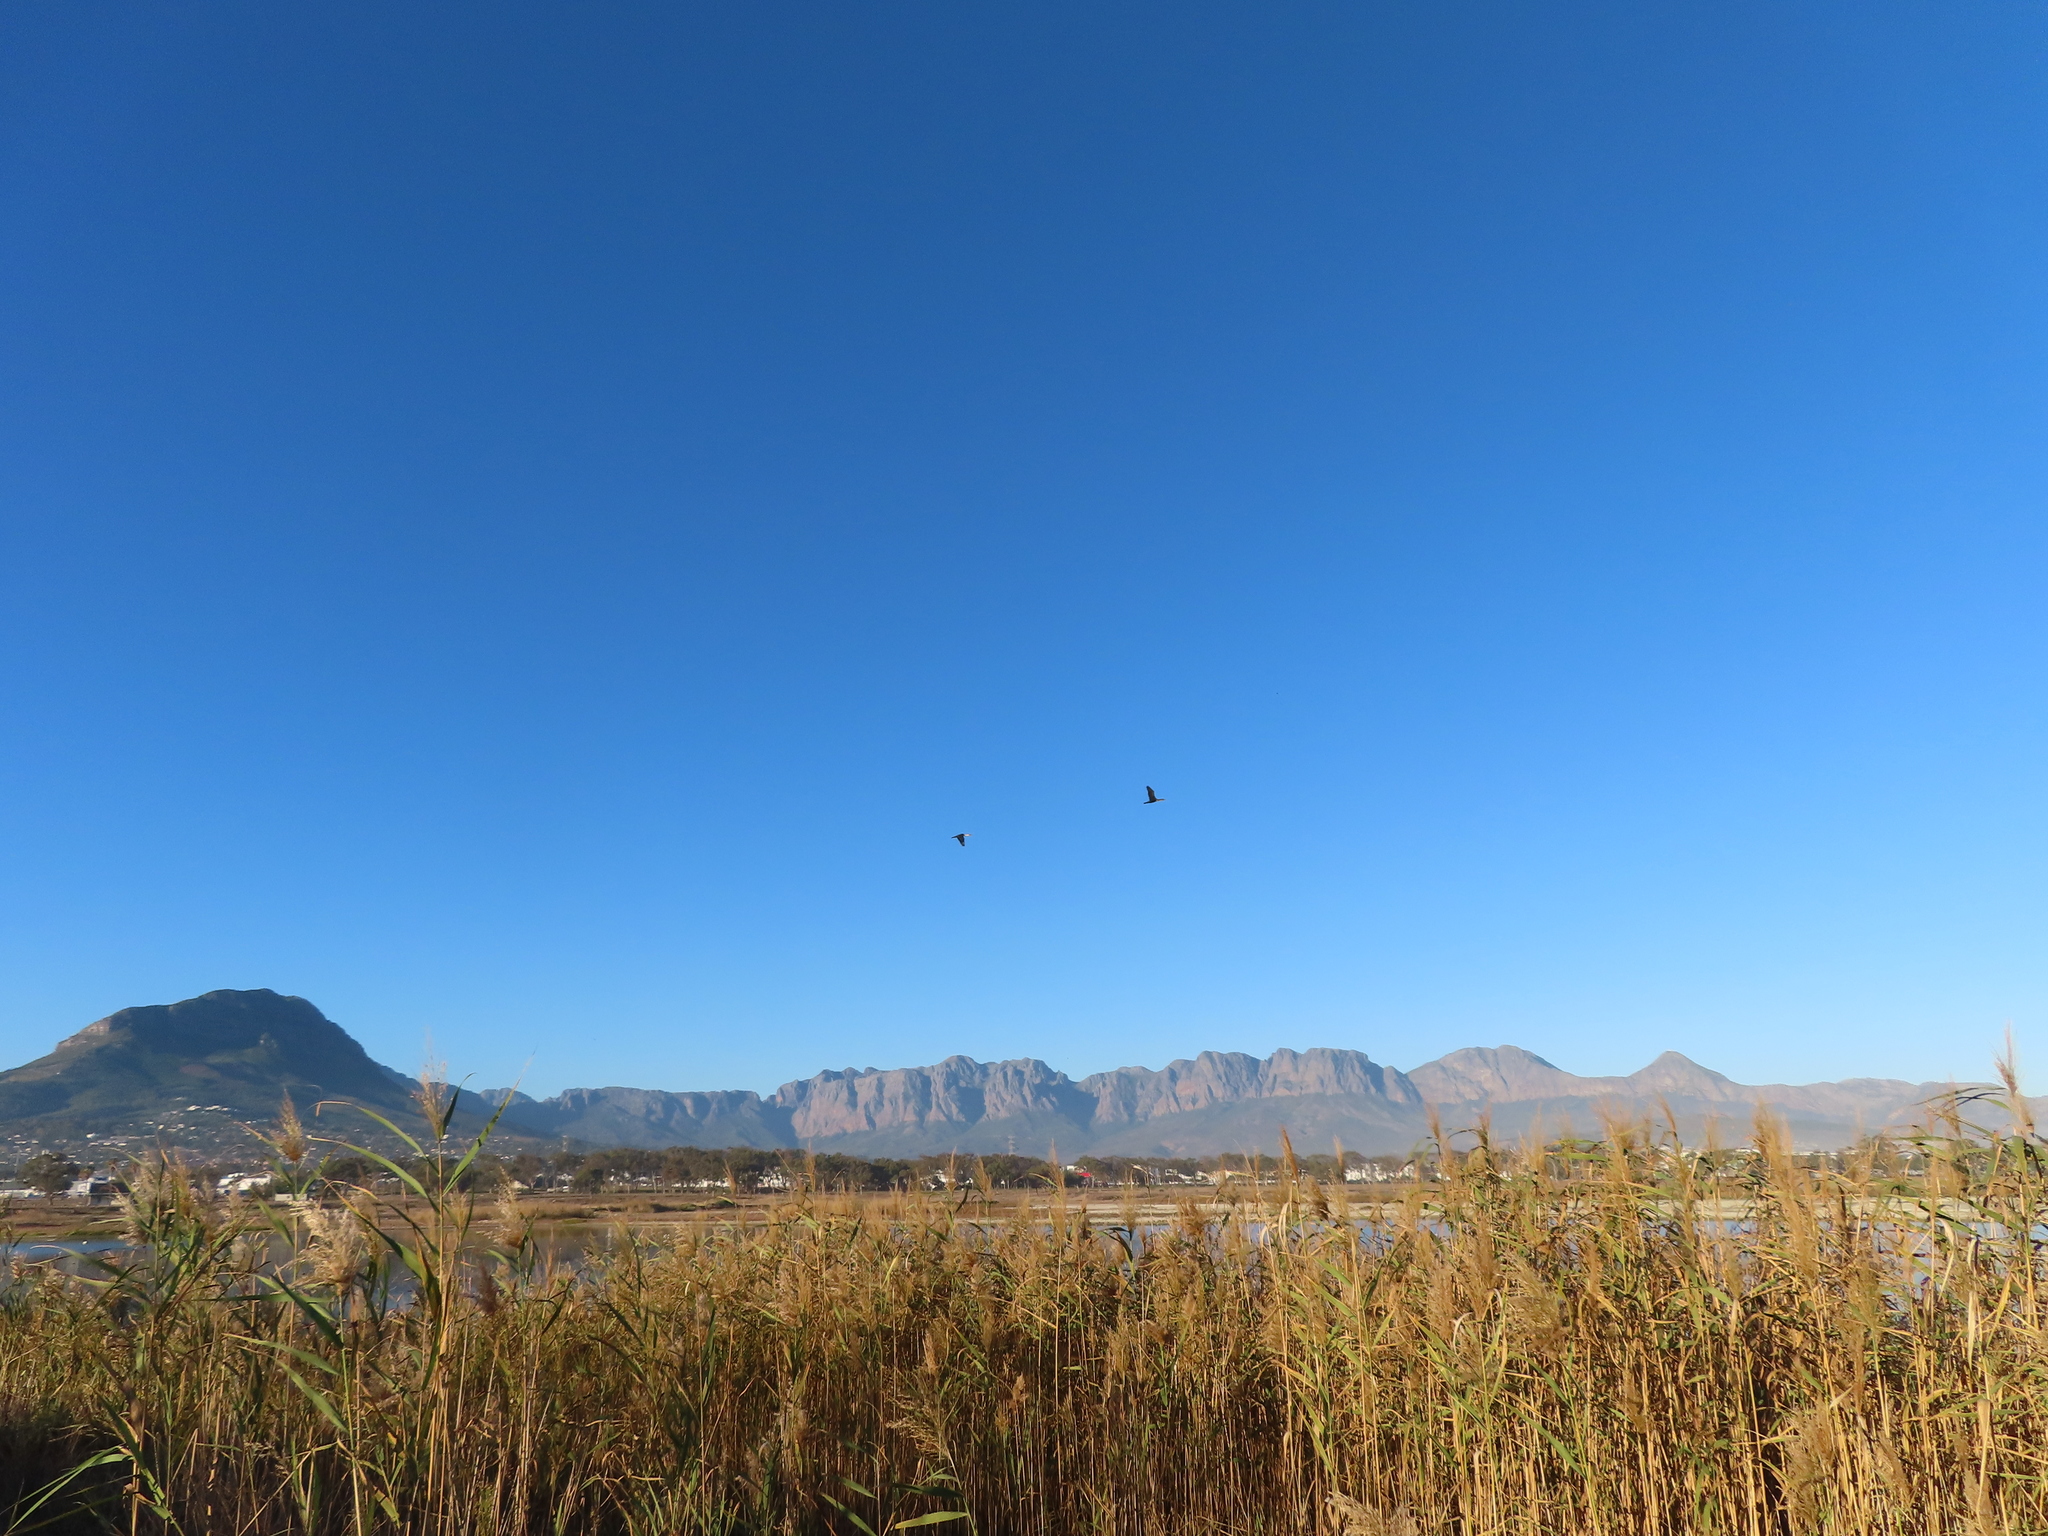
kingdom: Plantae
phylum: Tracheophyta
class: Liliopsida
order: Poales
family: Poaceae
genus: Phragmites
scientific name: Phragmites australis
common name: Common reed
